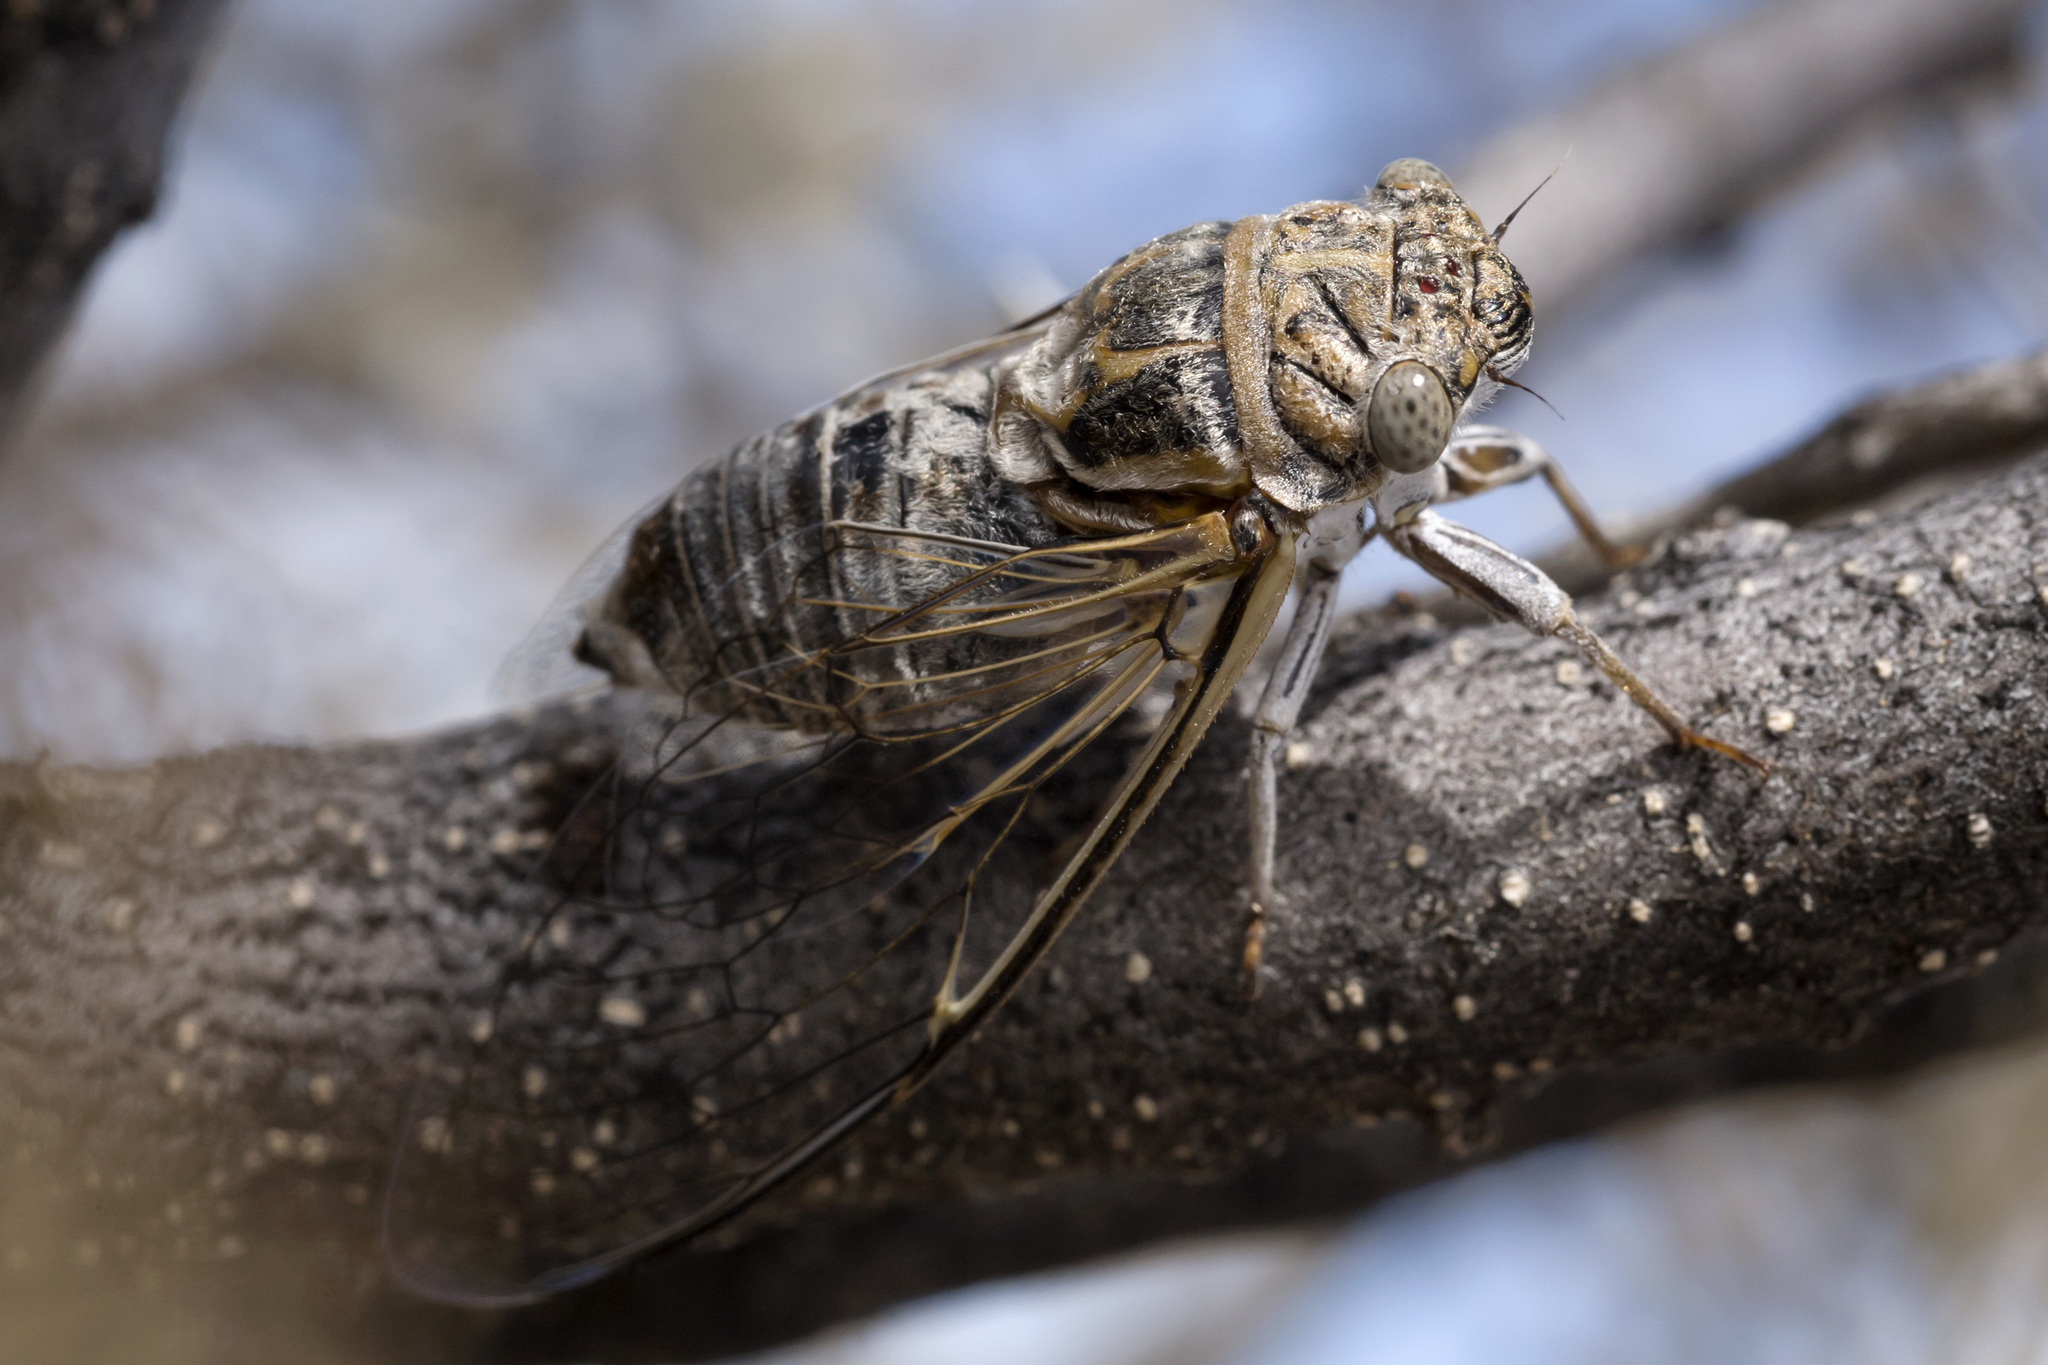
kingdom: Animalia
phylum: Arthropoda
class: Insecta
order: Hemiptera
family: Cicadidae
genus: Diceroprocta
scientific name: Diceroprocta eugraphica
